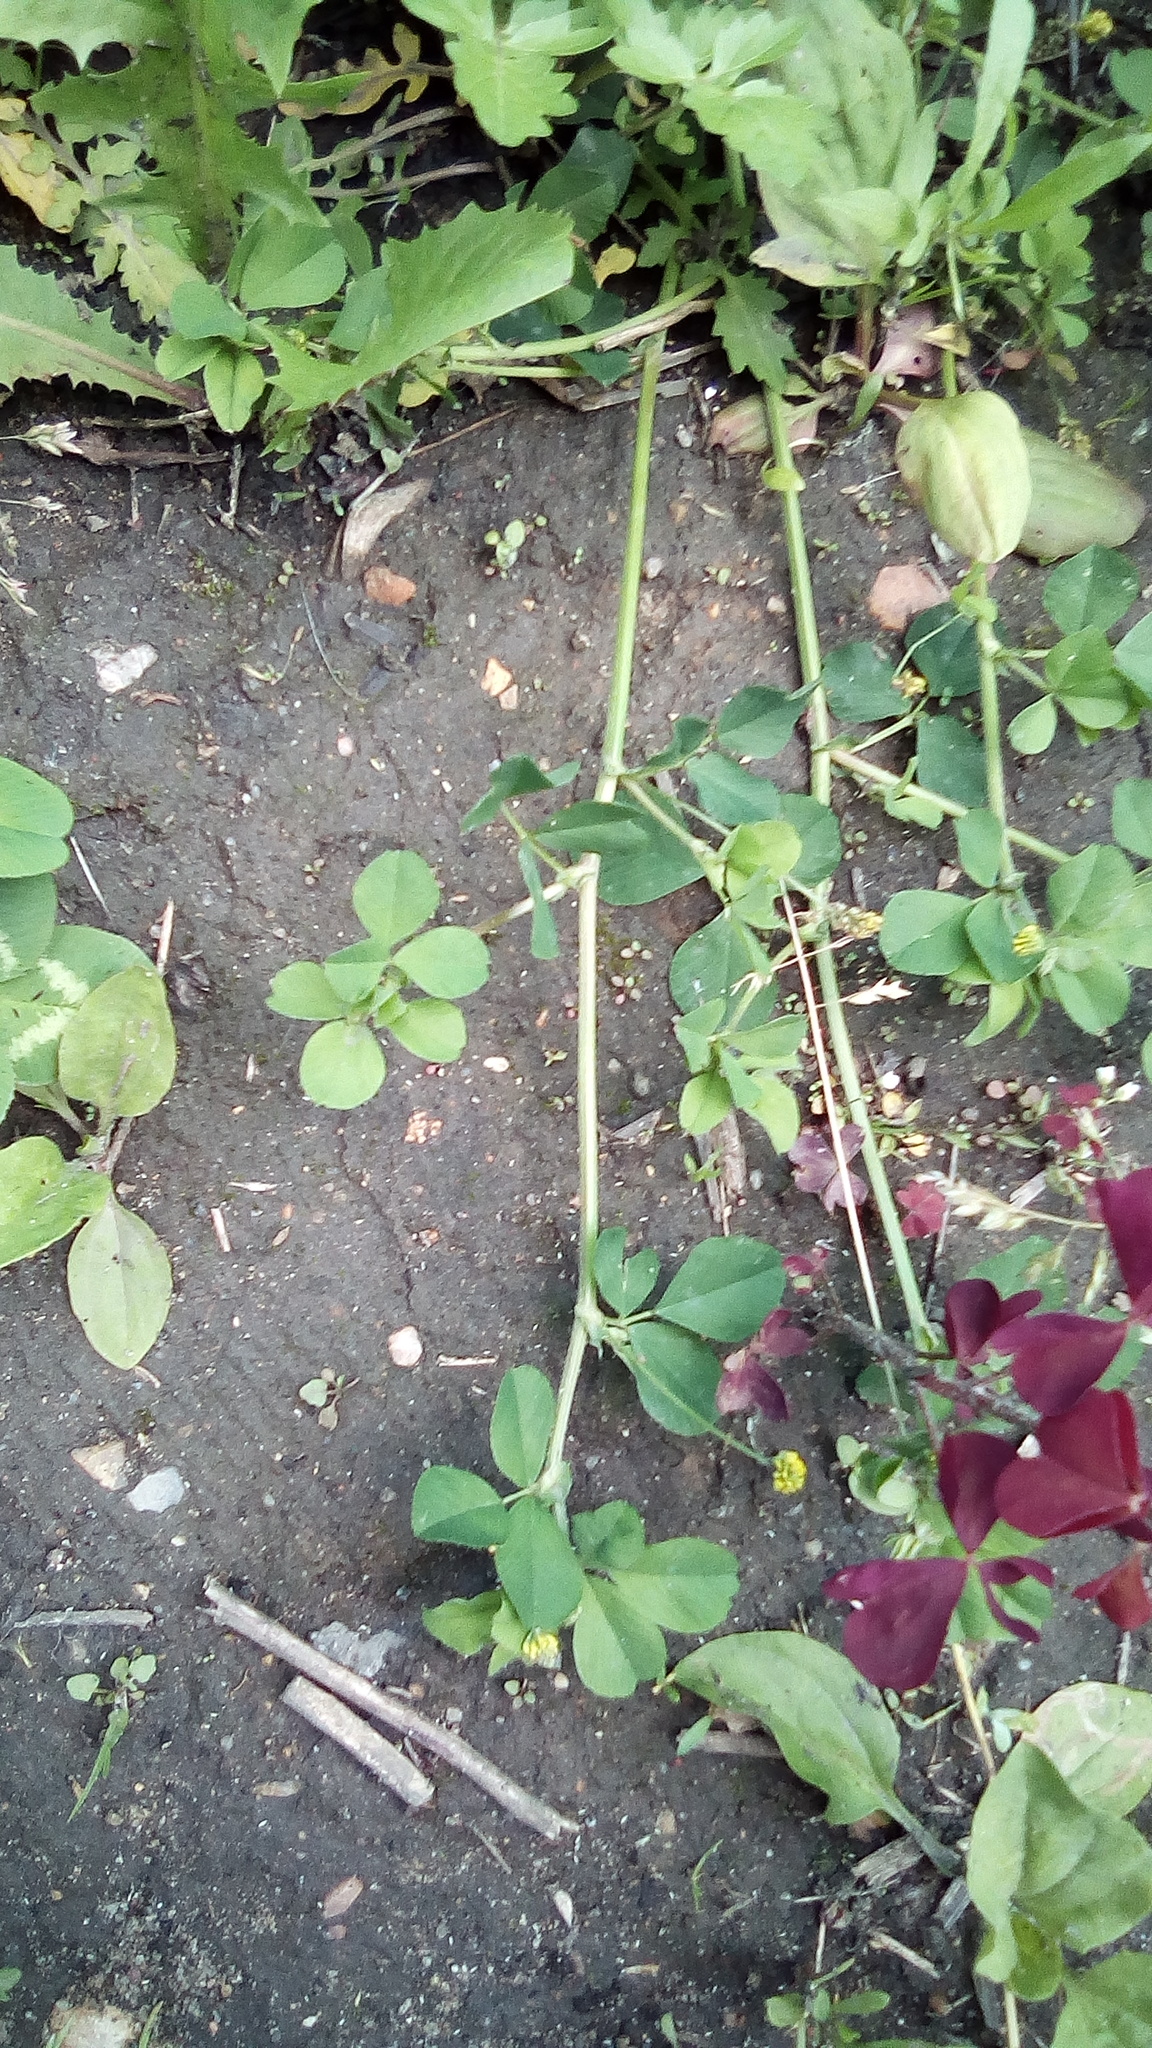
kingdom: Plantae
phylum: Tracheophyta
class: Magnoliopsida
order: Fabales
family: Fabaceae
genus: Medicago
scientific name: Medicago lupulina
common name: Black medick
